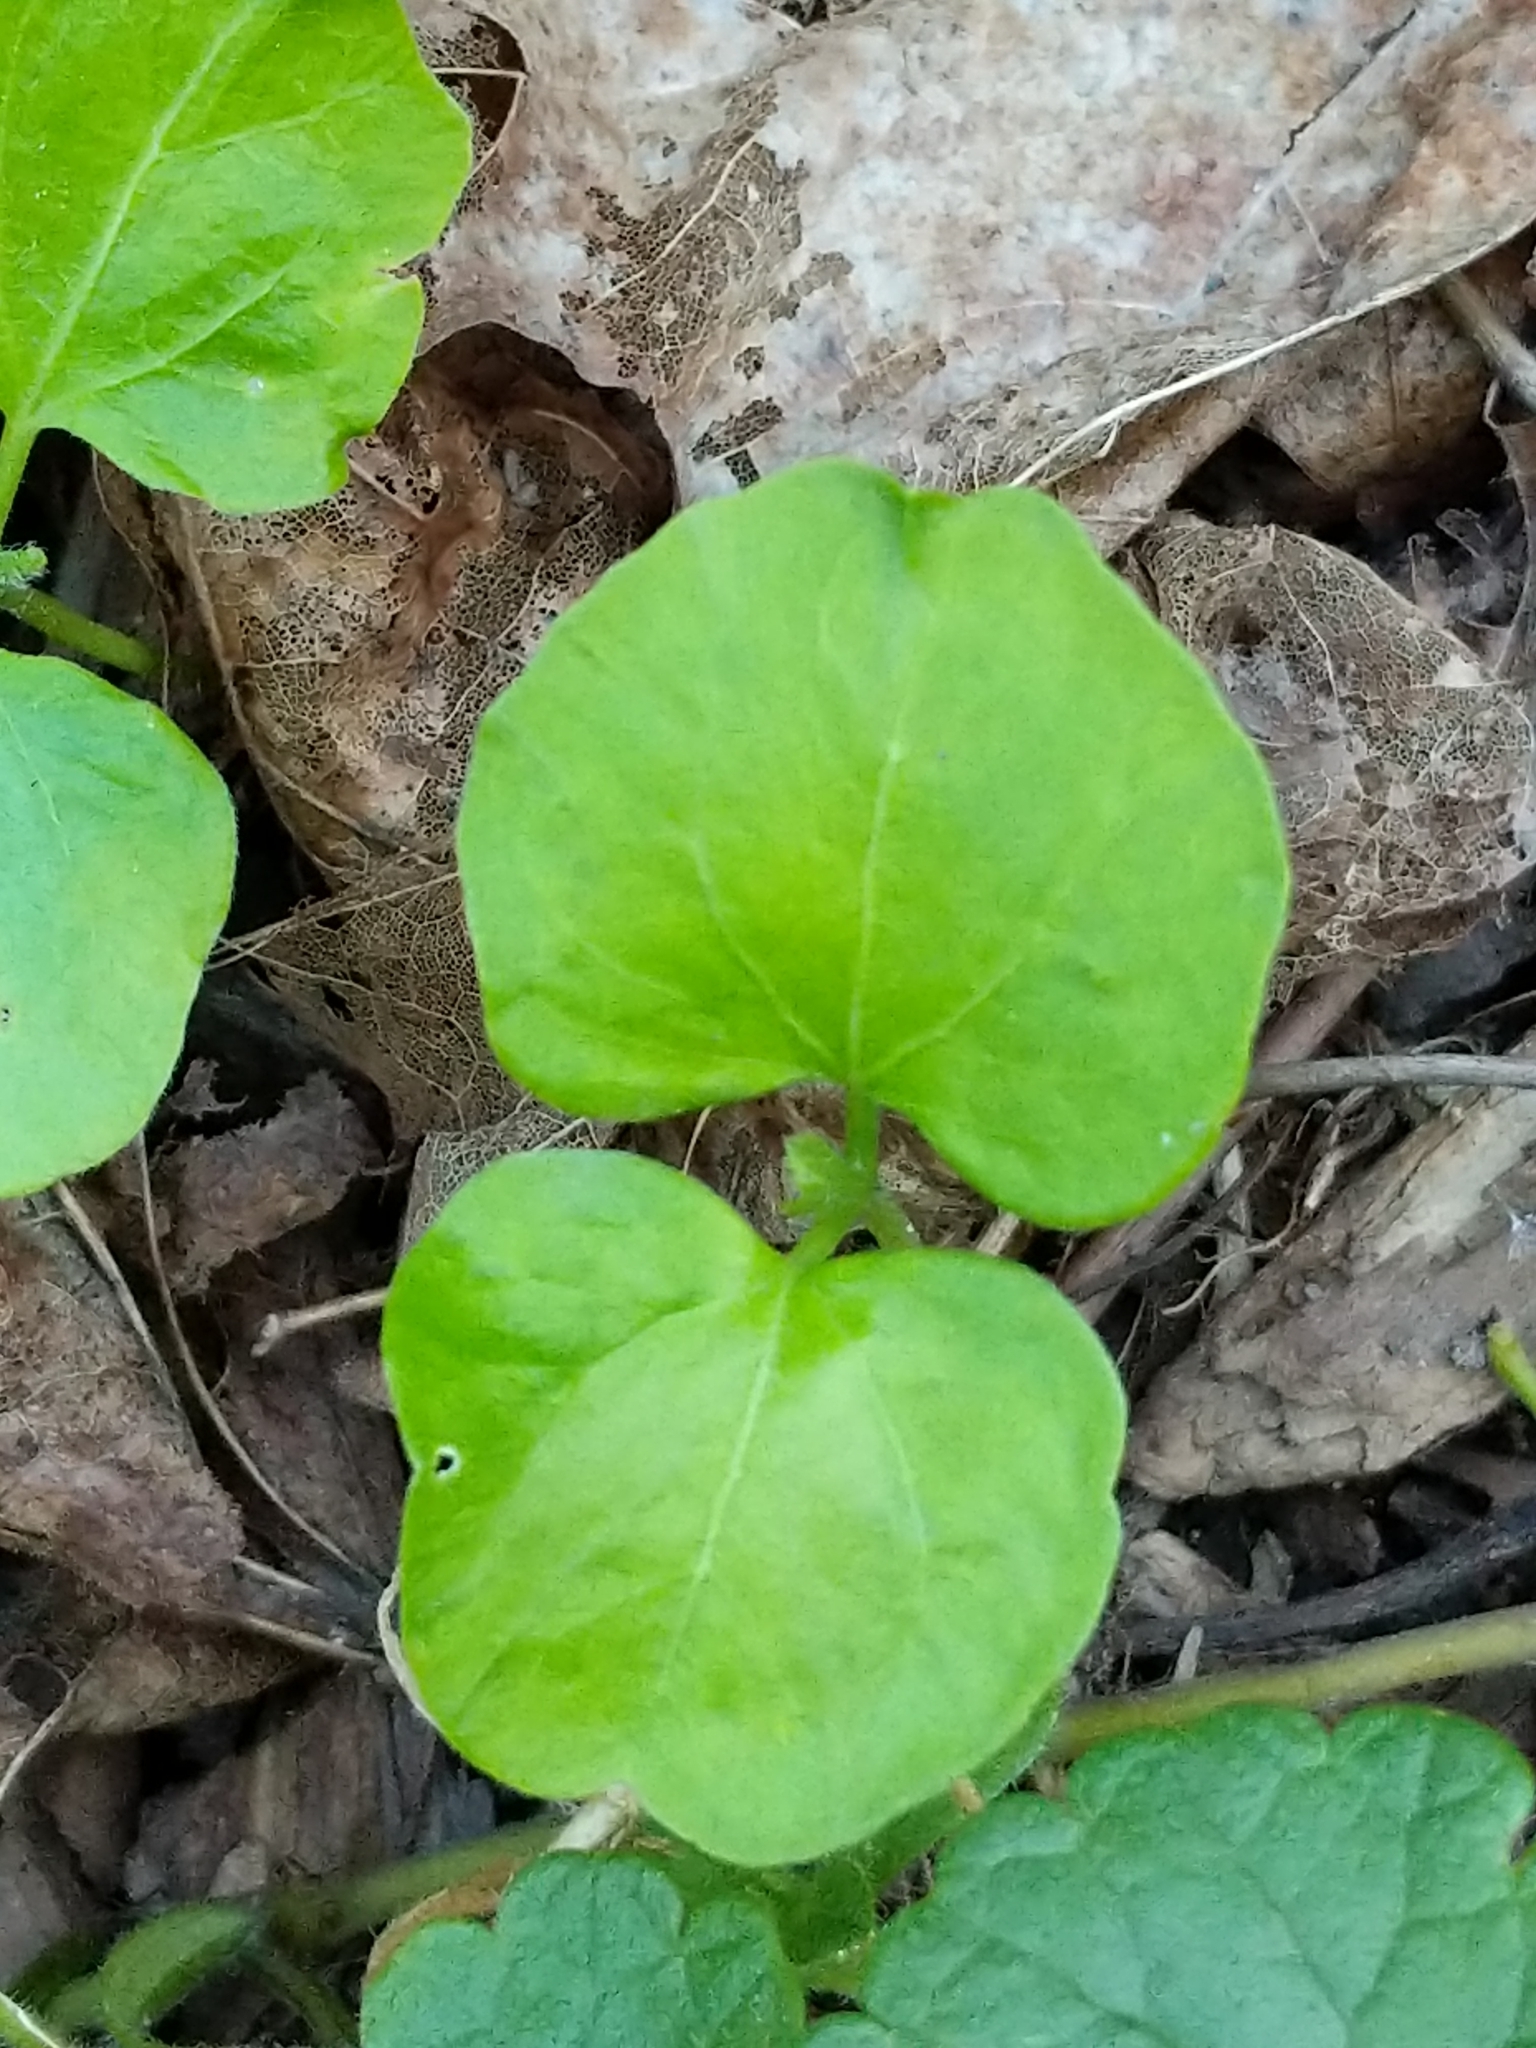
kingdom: Plantae
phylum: Tracheophyta
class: Magnoliopsida
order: Malvales
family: Malvaceae
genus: Hibiscus
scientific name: Hibiscus syriacus
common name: Syrian ketmia
